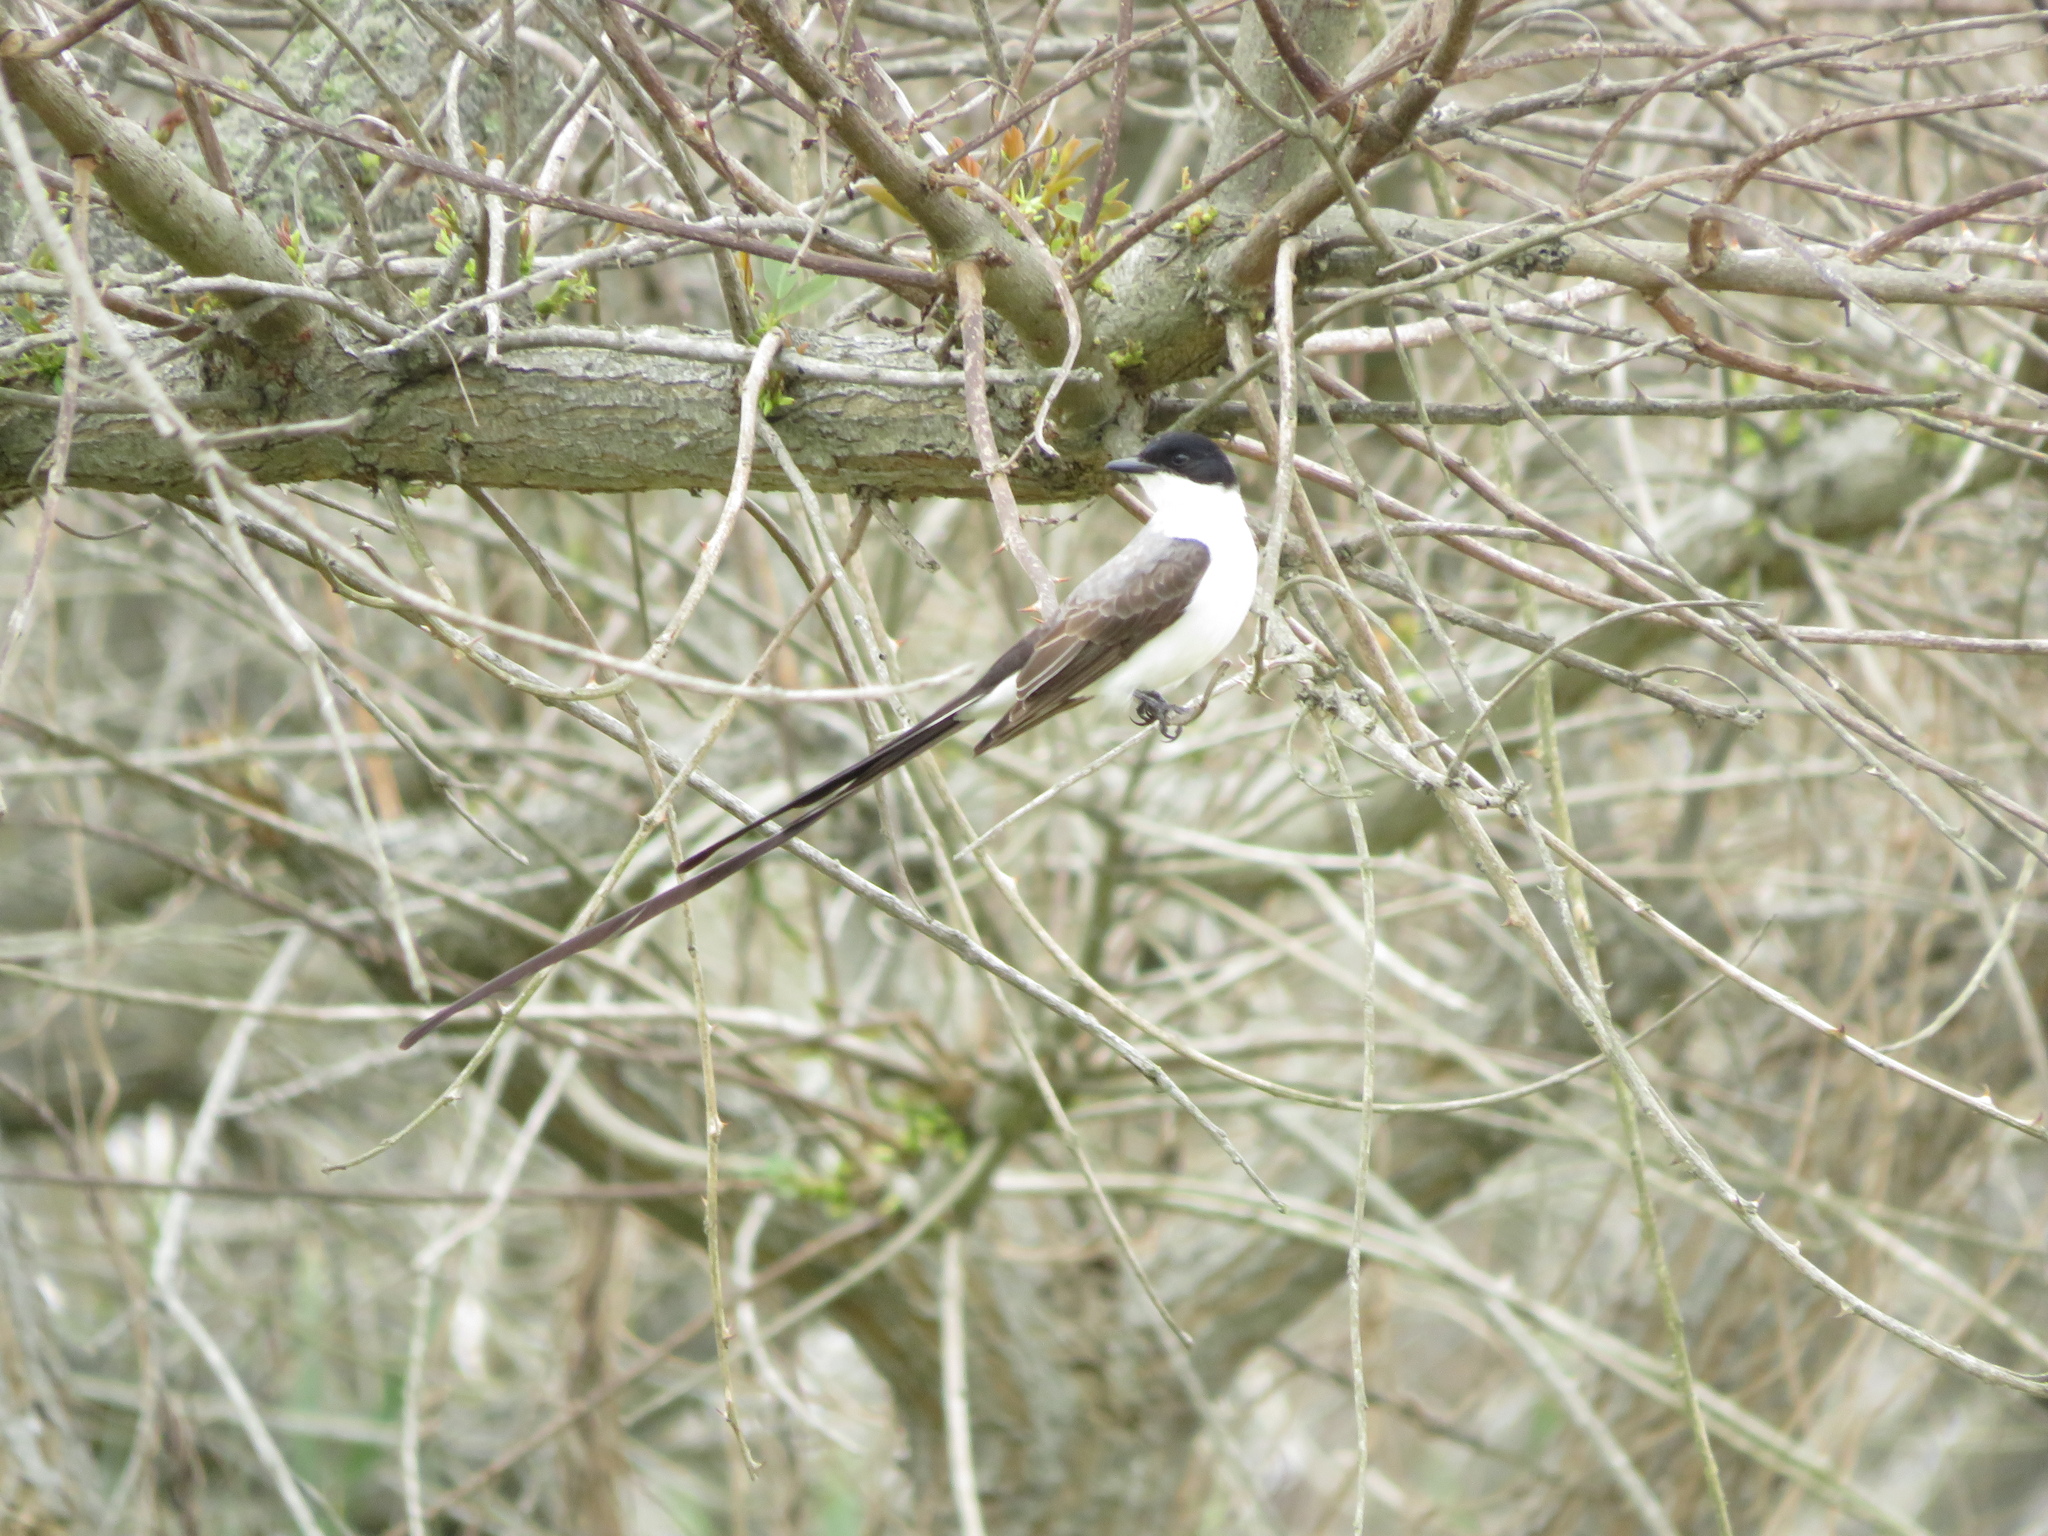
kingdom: Animalia
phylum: Chordata
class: Aves
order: Passeriformes
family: Tyrannidae
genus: Tyrannus
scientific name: Tyrannus savana
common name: Fork-tailed flycatcher
